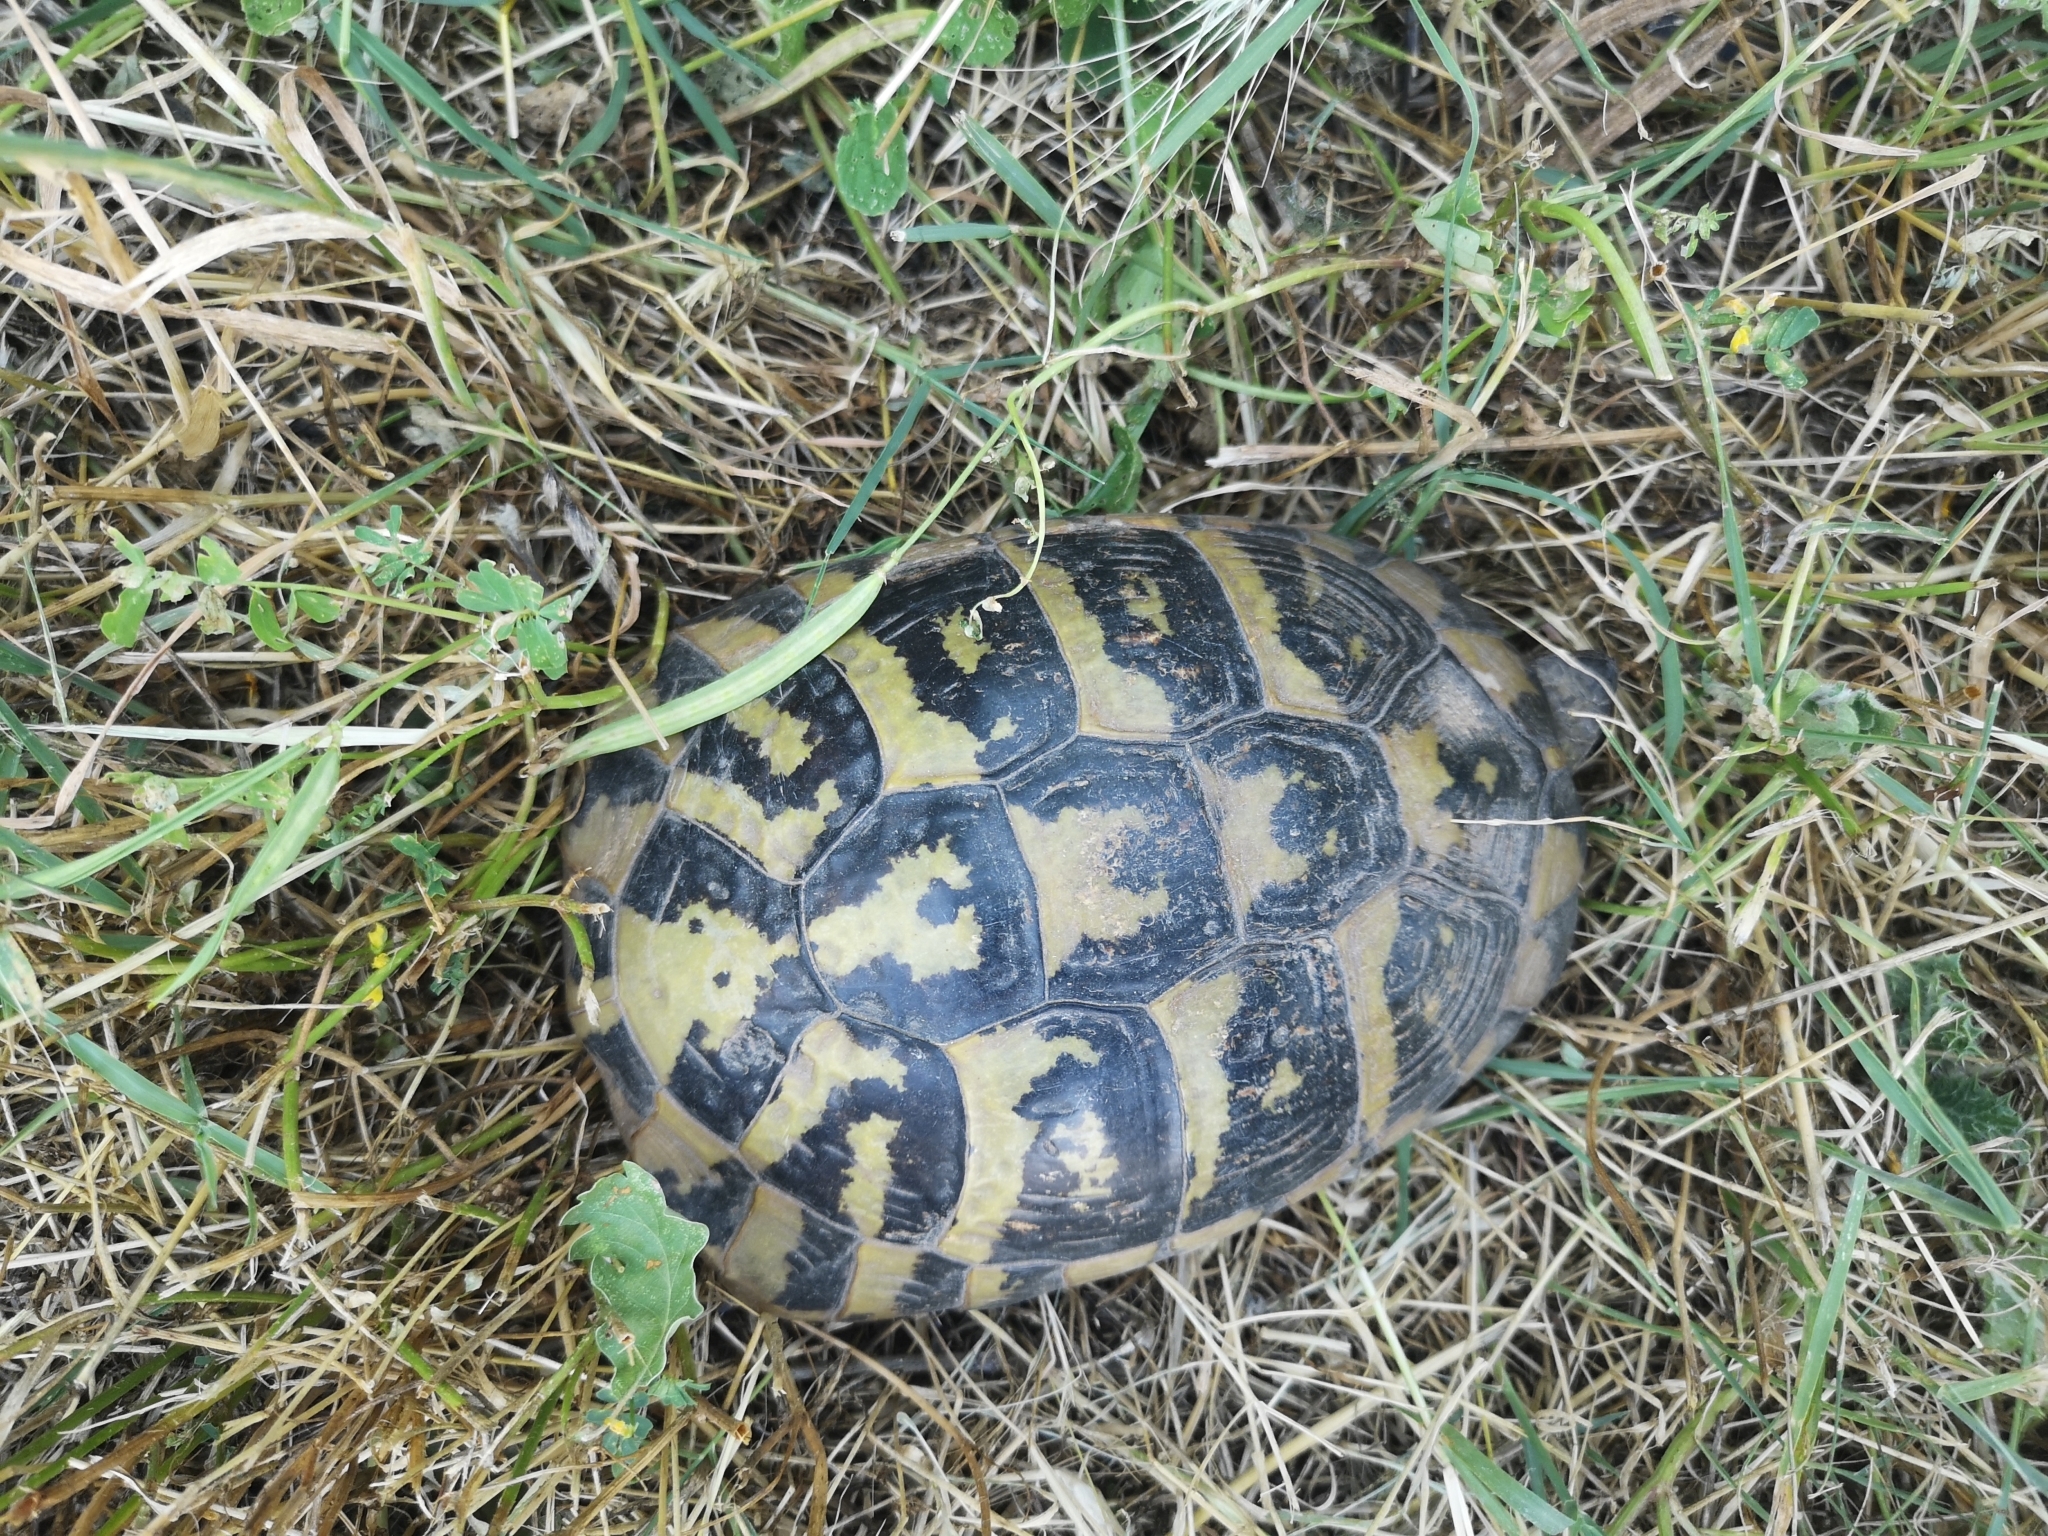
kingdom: Animalia
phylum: Chordata
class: Testudines
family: Testudinidae
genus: Testudo
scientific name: Testudo hermanni
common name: Hermann's tortoise
